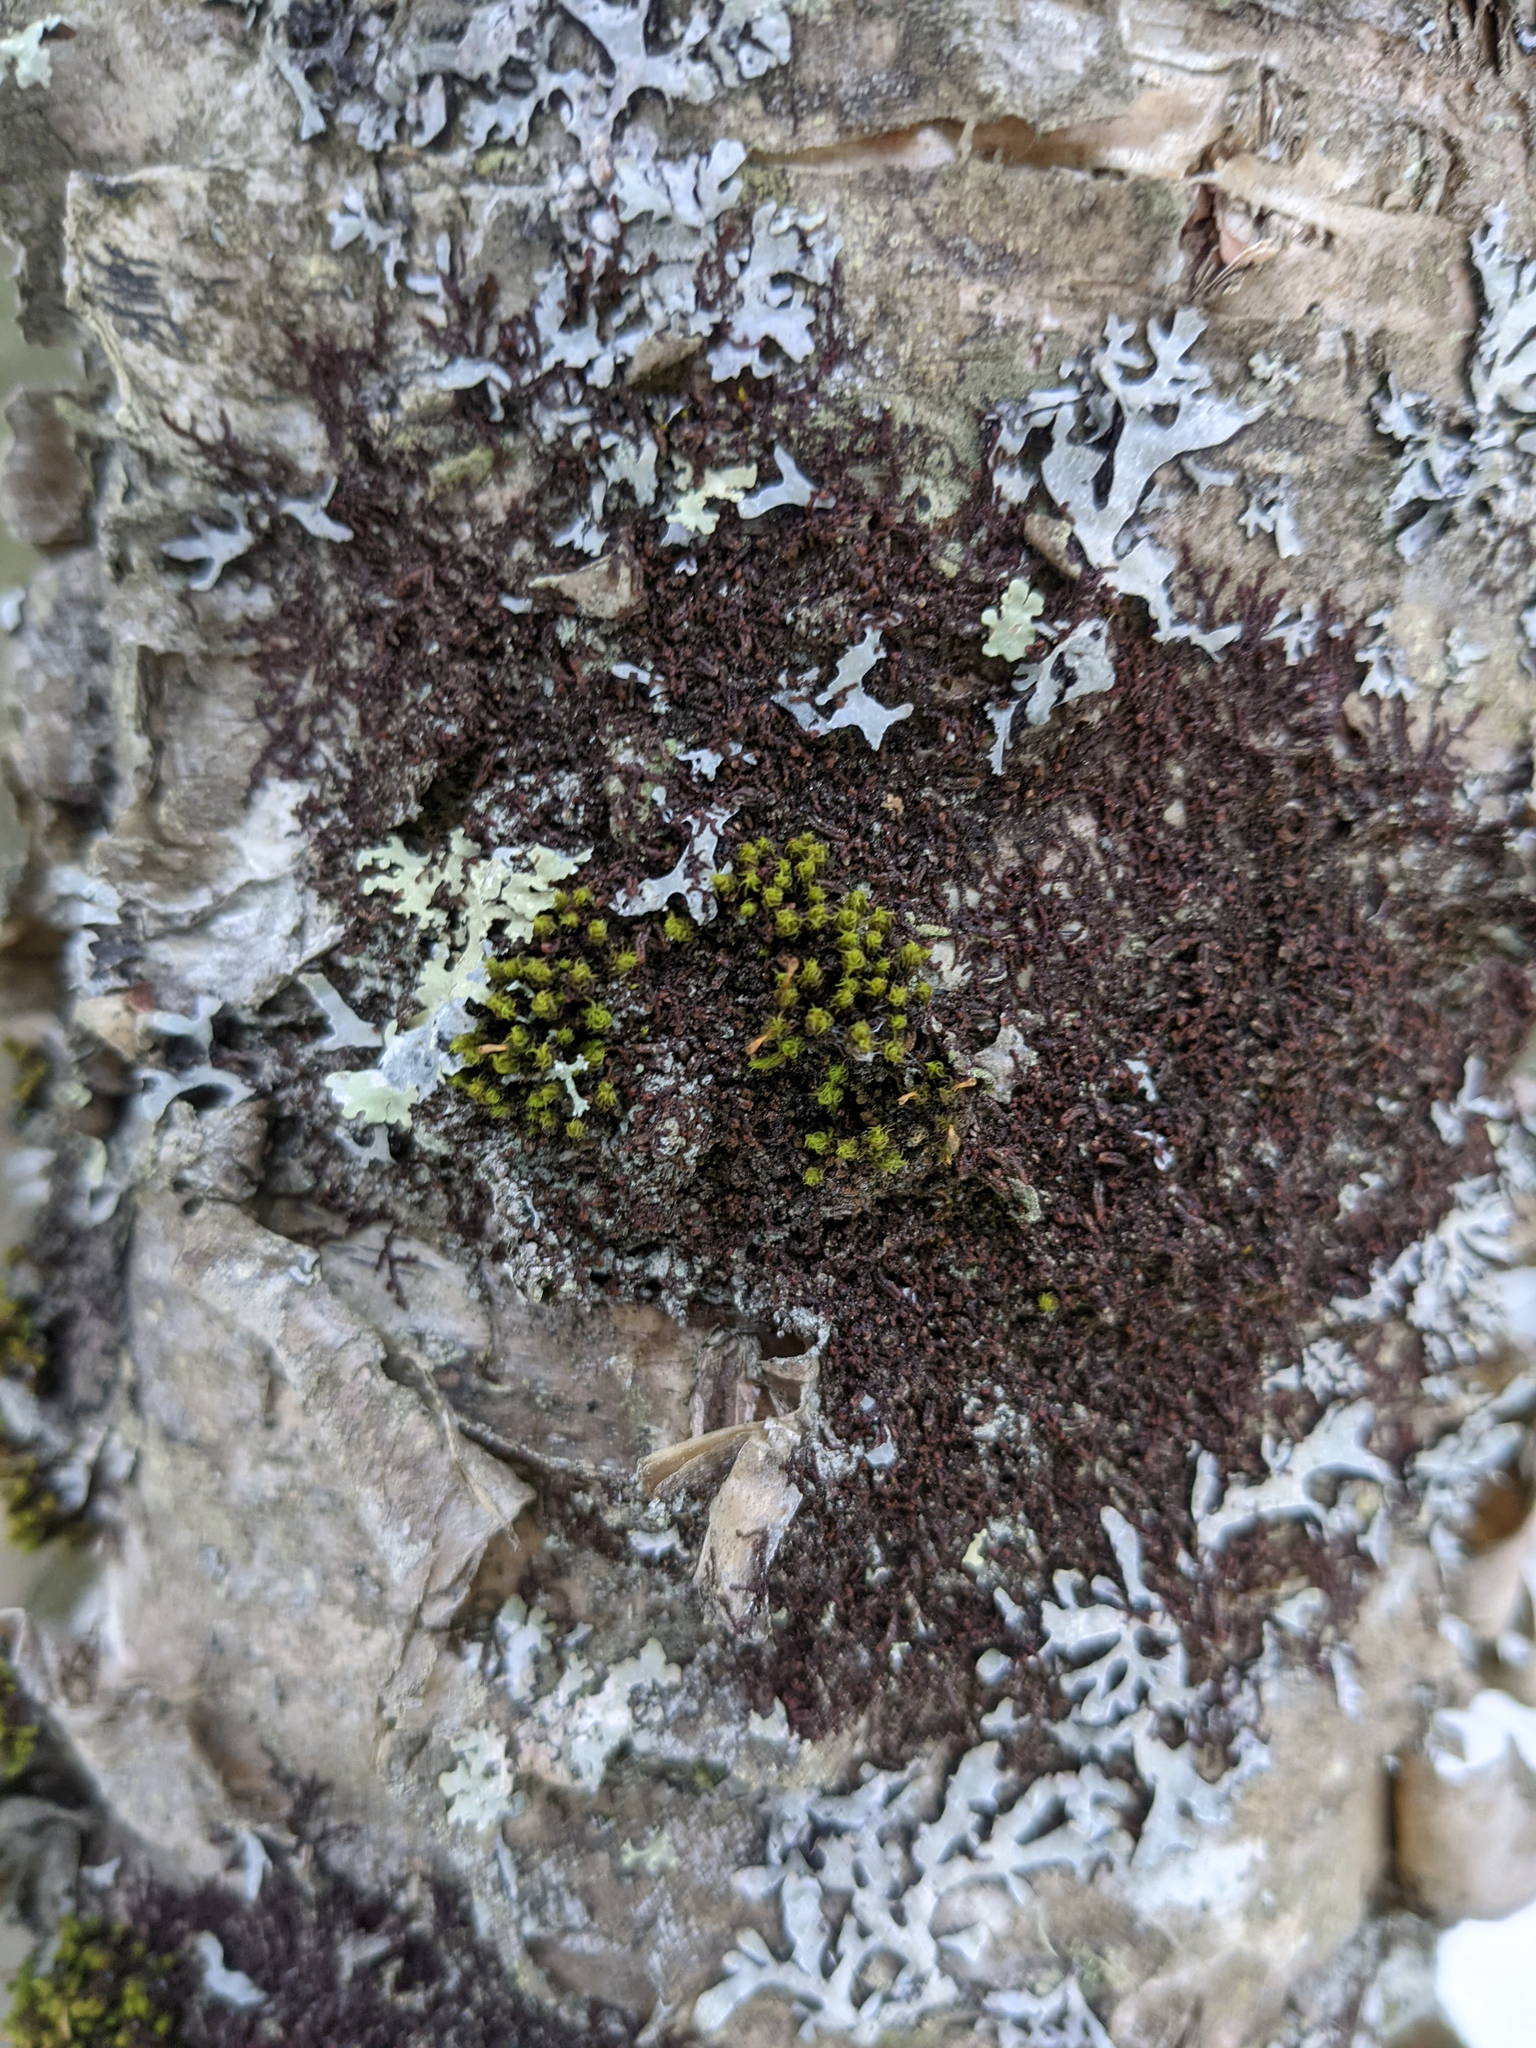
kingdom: Plantae
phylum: Bryophyta
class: Bryopsida
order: Orthotrichales
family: Orthotrichaceae
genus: Ulota
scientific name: Ulota crispa
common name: Crisped pincushion moss
